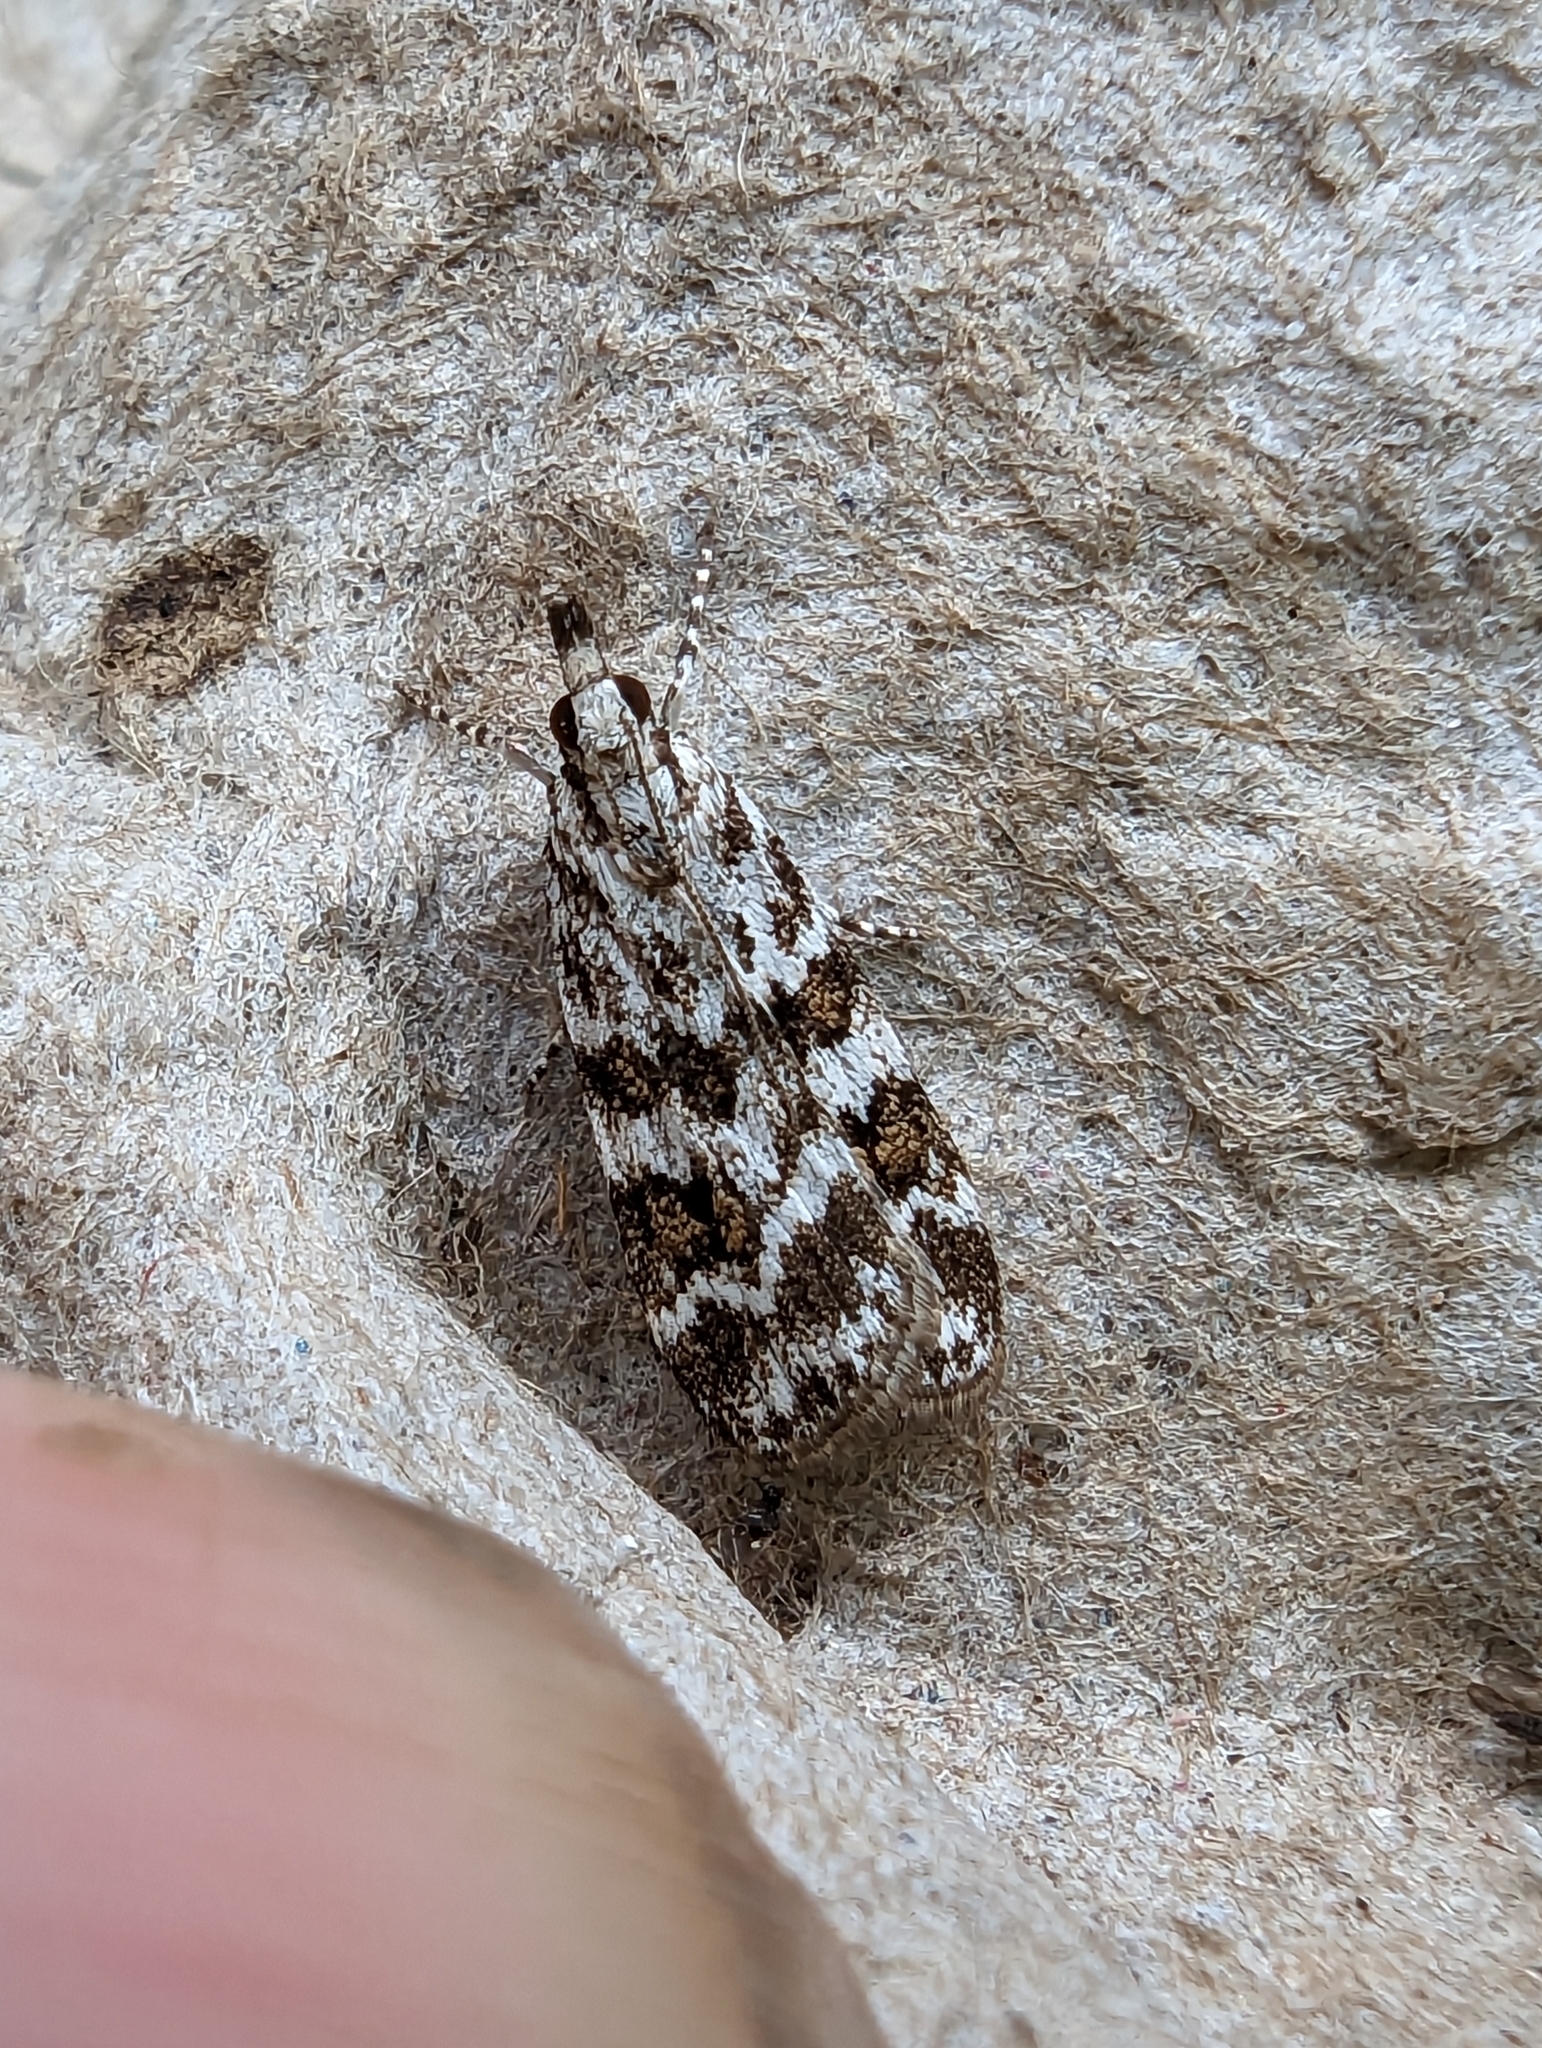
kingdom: Animalia
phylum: Arthropoda
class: Insecta
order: Lepidoptera
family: Crambidae
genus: Scoparia
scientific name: Scoparia pyralella
